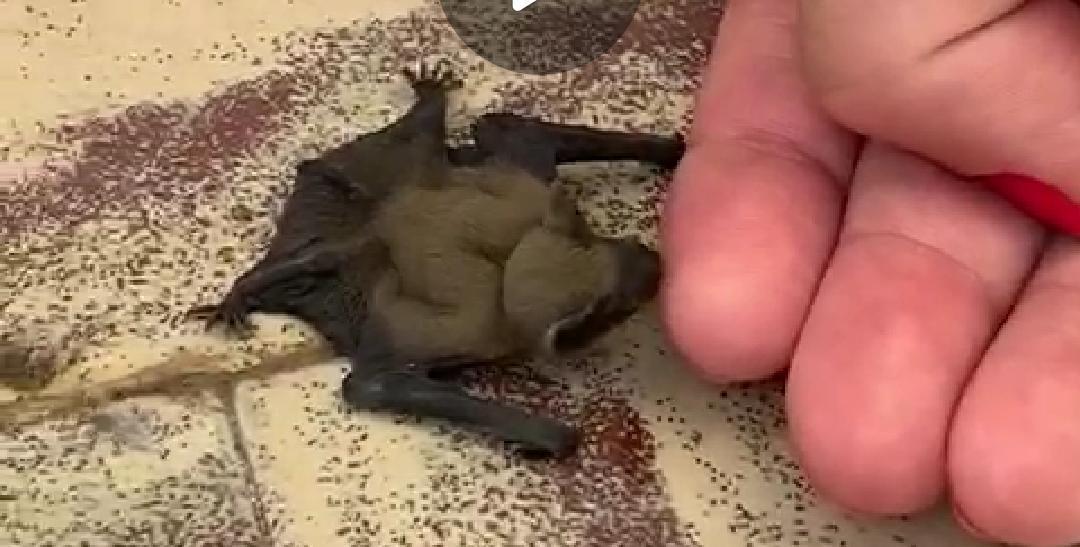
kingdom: Animalia
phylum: Chordata
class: Mammalia
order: Chiroptera
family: Vespertilionidae
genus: Pipistrellus
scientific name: Pipistrellus kuhlii
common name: Kuhl's pipistrelle
